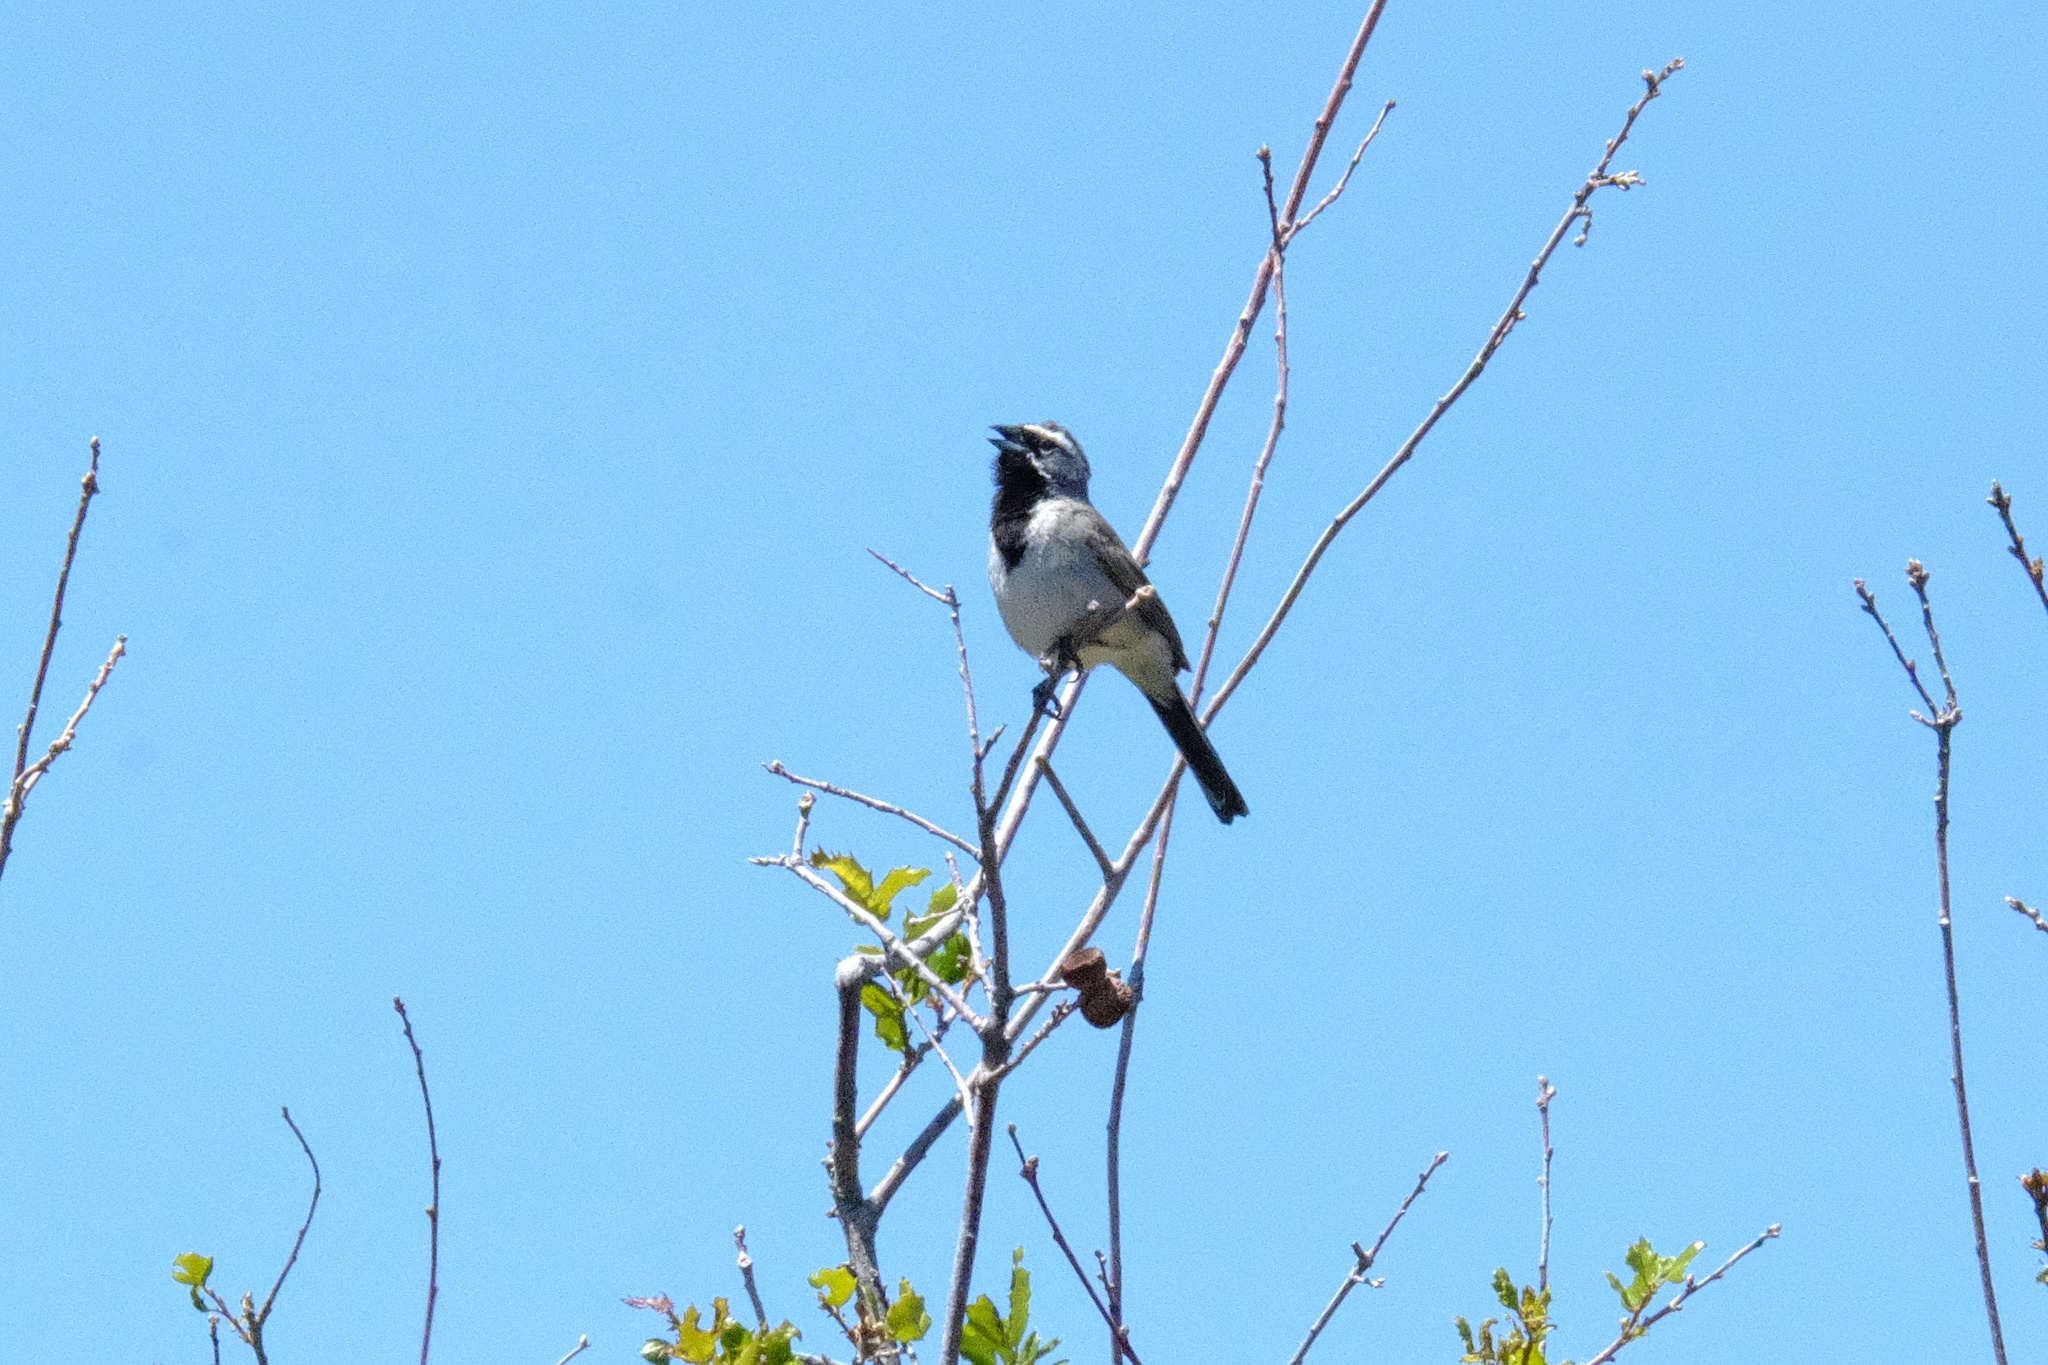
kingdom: Animalia
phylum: Chordata
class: Aves
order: Passeriformes
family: Passerellidae
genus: Amphispiza
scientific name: Amphispiza bilineata
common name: Black-throated sparrow
